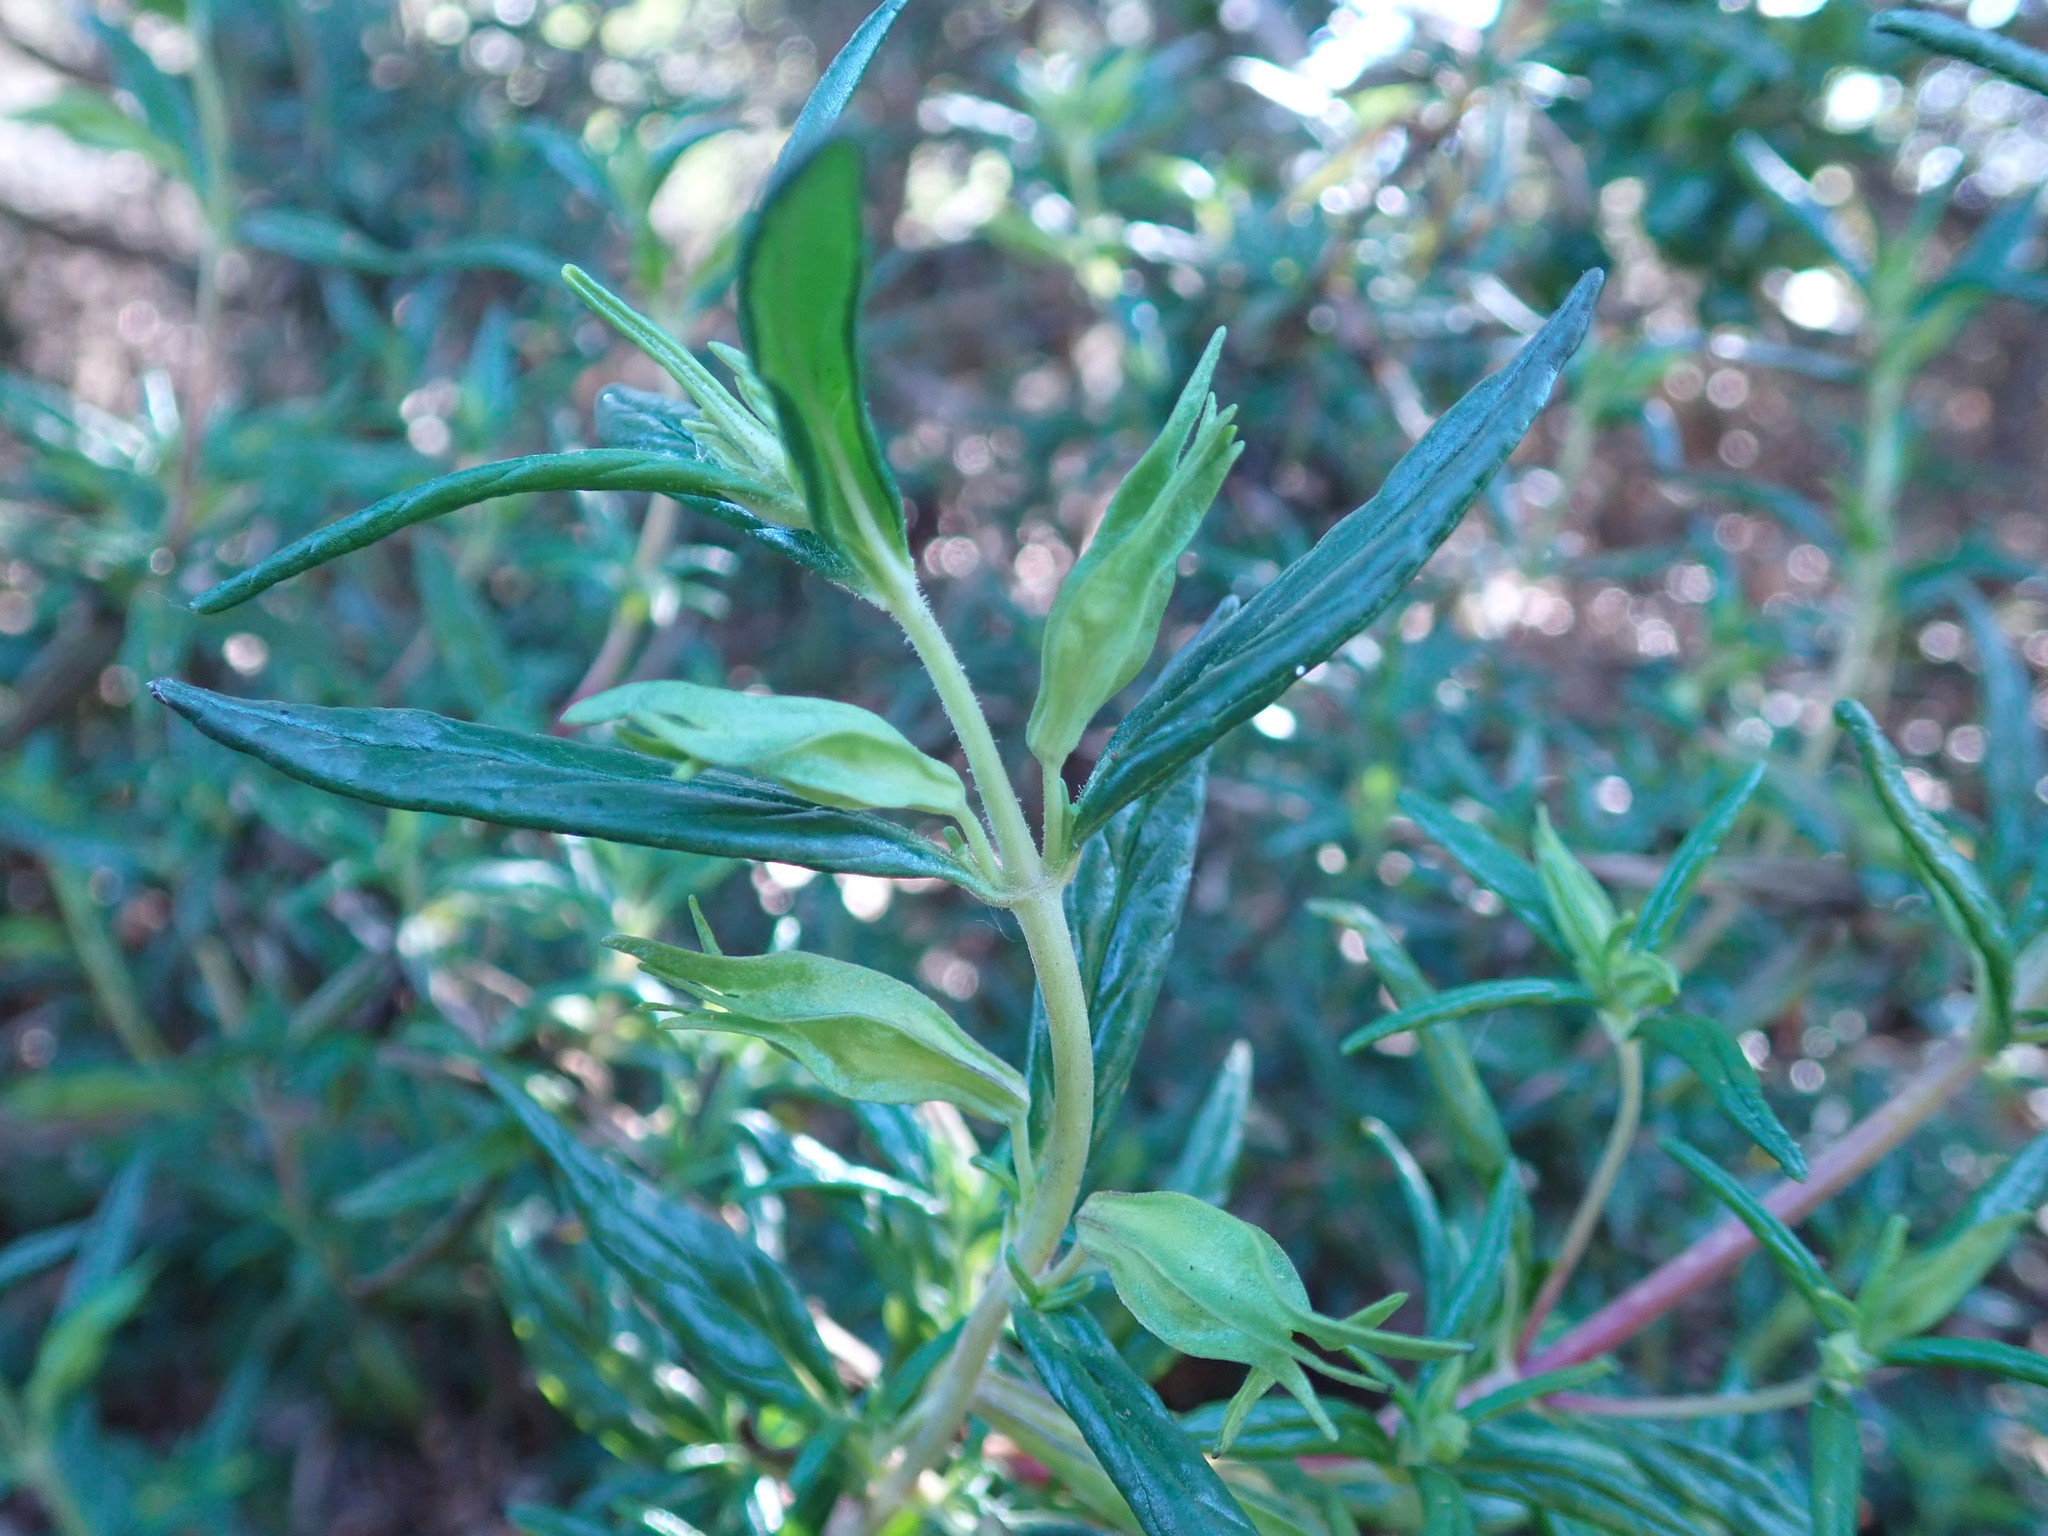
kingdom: Plantae
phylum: Tracheophyta
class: Magnoliopsida
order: Lamiales
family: Phrymaceae
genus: Diplacus
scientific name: Diplacus aurantiacus
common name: Bush monkey-flower
